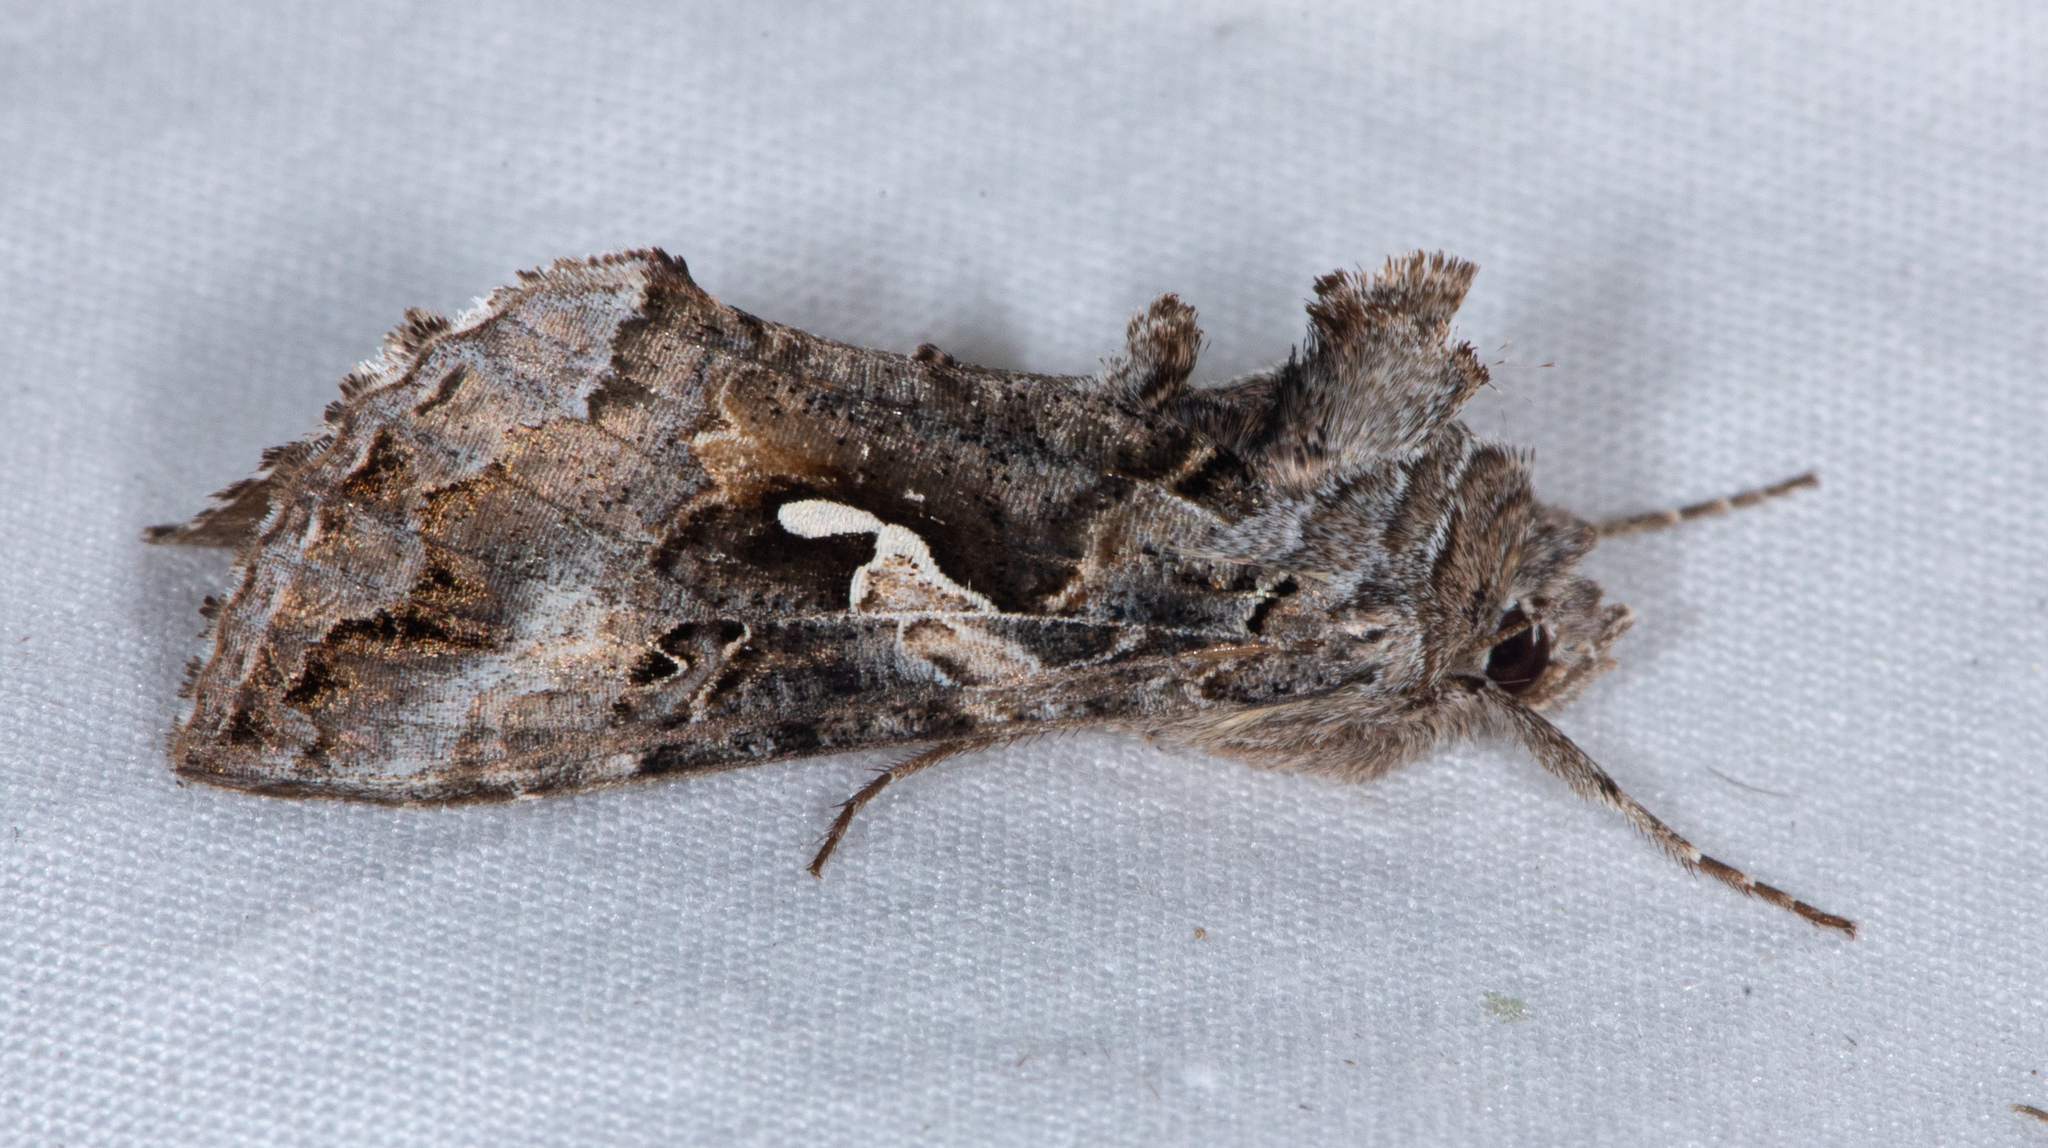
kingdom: Animalia
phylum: Arthropoda
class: Insecta
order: Lepidoptera
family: Noctuidae
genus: Autographa
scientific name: Autographa californica
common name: Alfalfa looper
